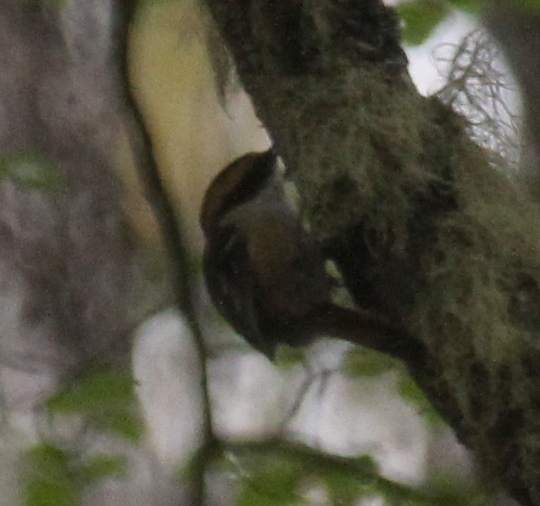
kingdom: Animalia
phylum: Chordata
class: Aves
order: Passeriformes
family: Furnariidae
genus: Aphrastura
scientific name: Aphrastura spinicauda
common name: Thorn-tailed rayadito
